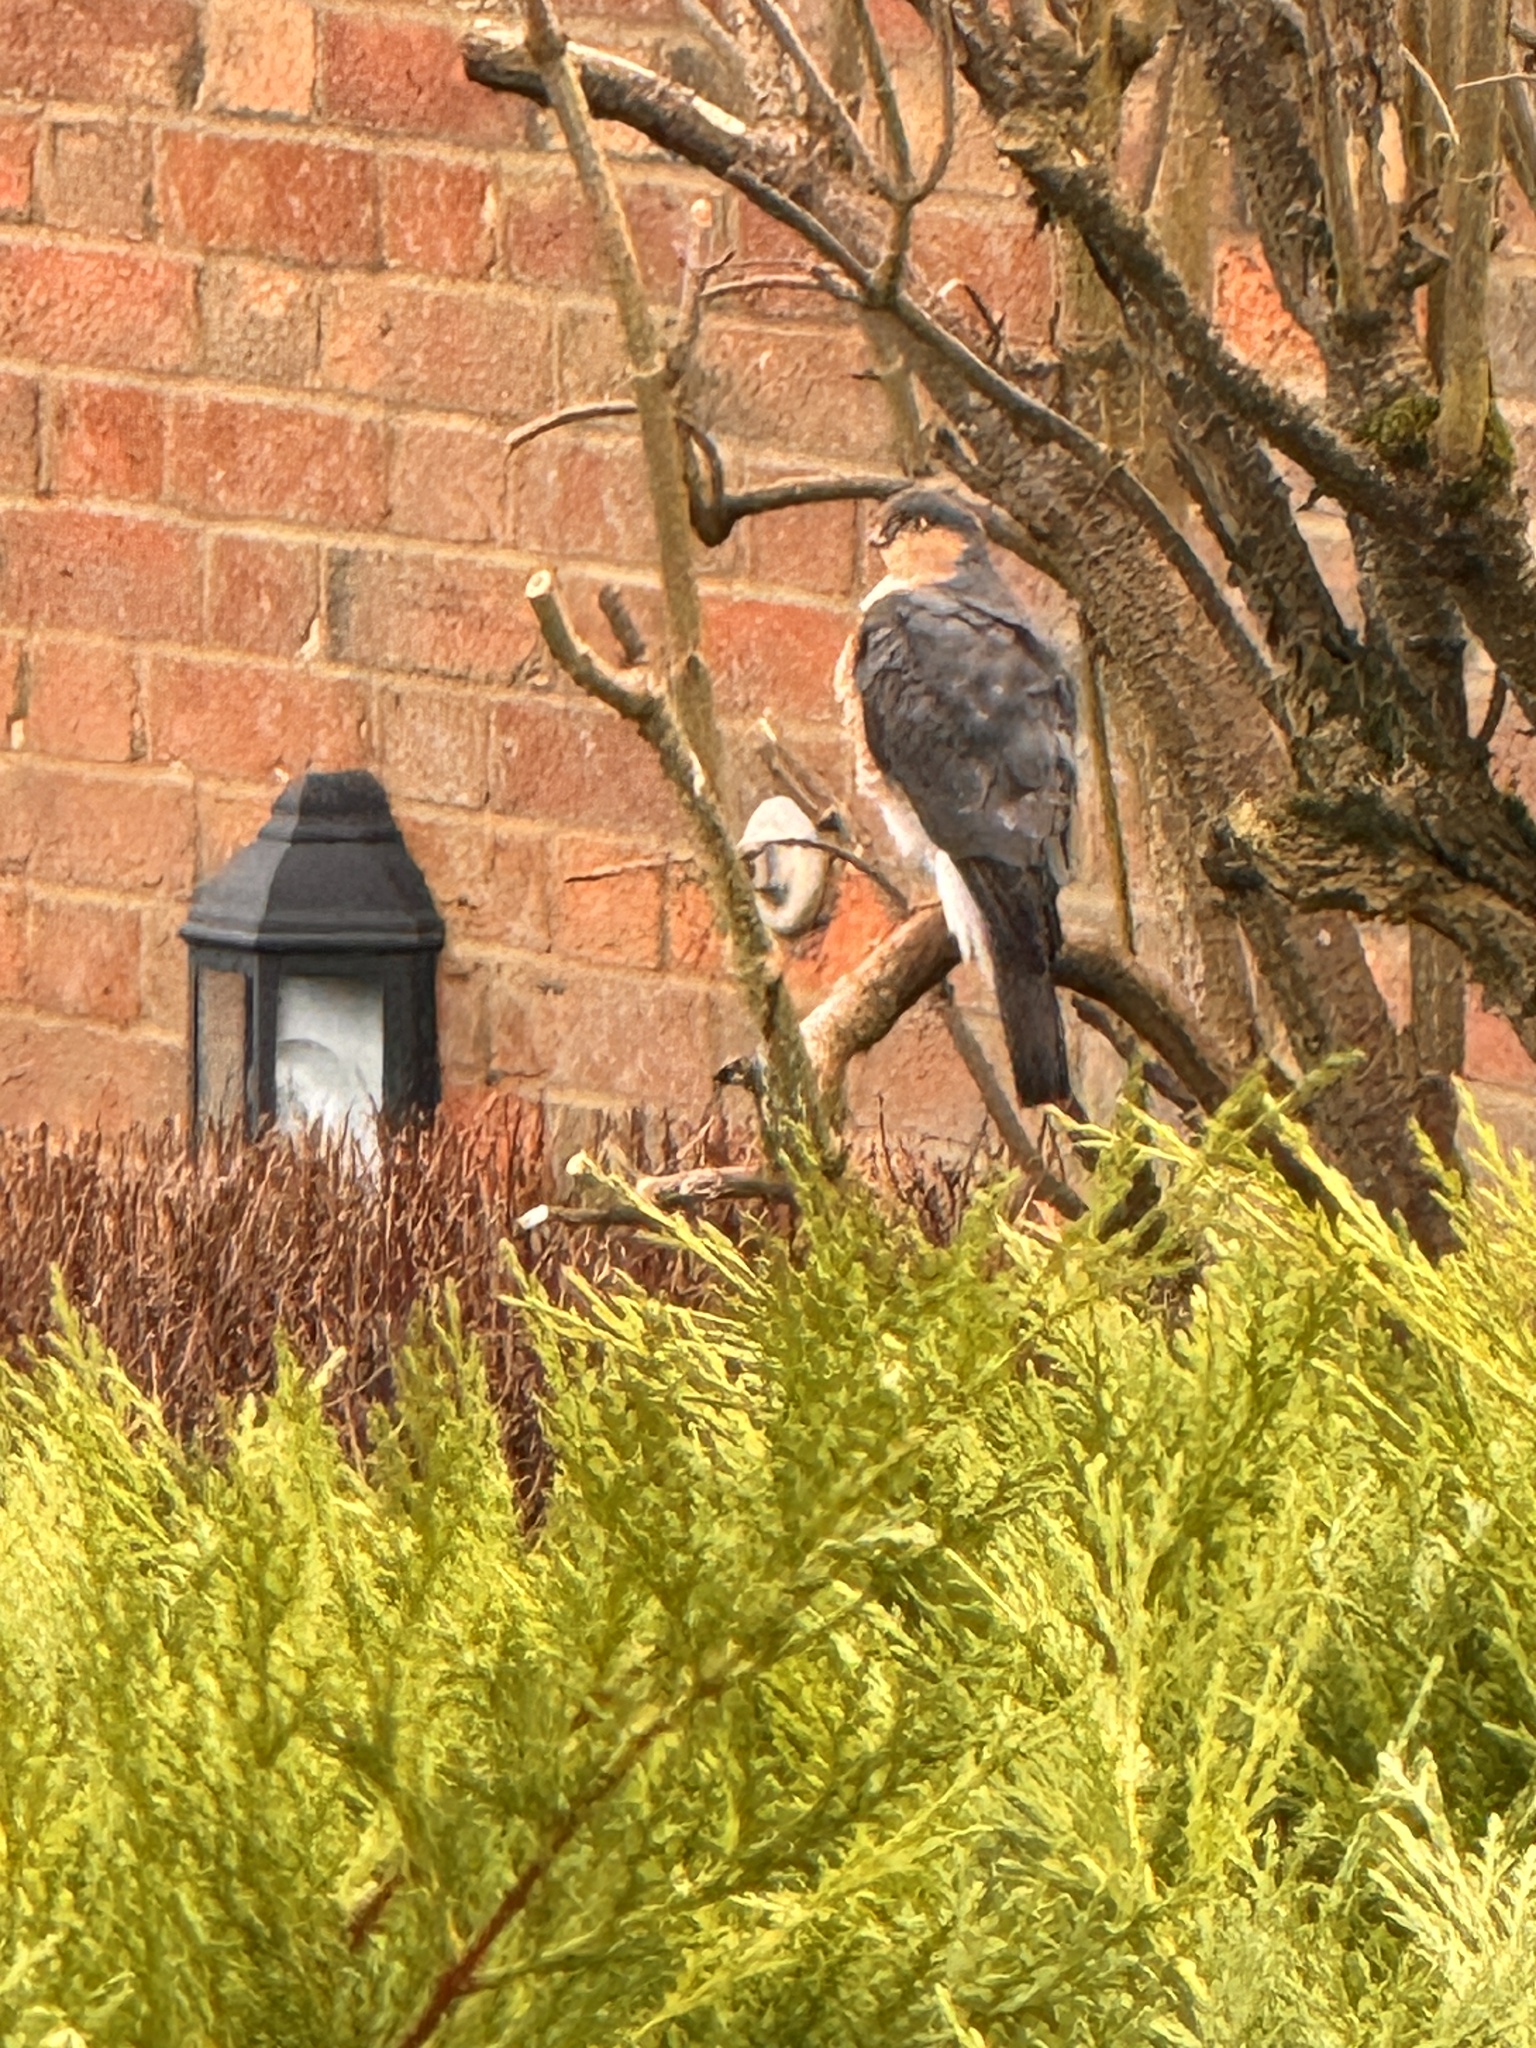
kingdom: Animalia
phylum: Chordata
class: Aves
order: Accipitriformes
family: Accipitridae
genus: Accipiter
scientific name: Accipiter nisus
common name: Eurasian sparrowhawk
